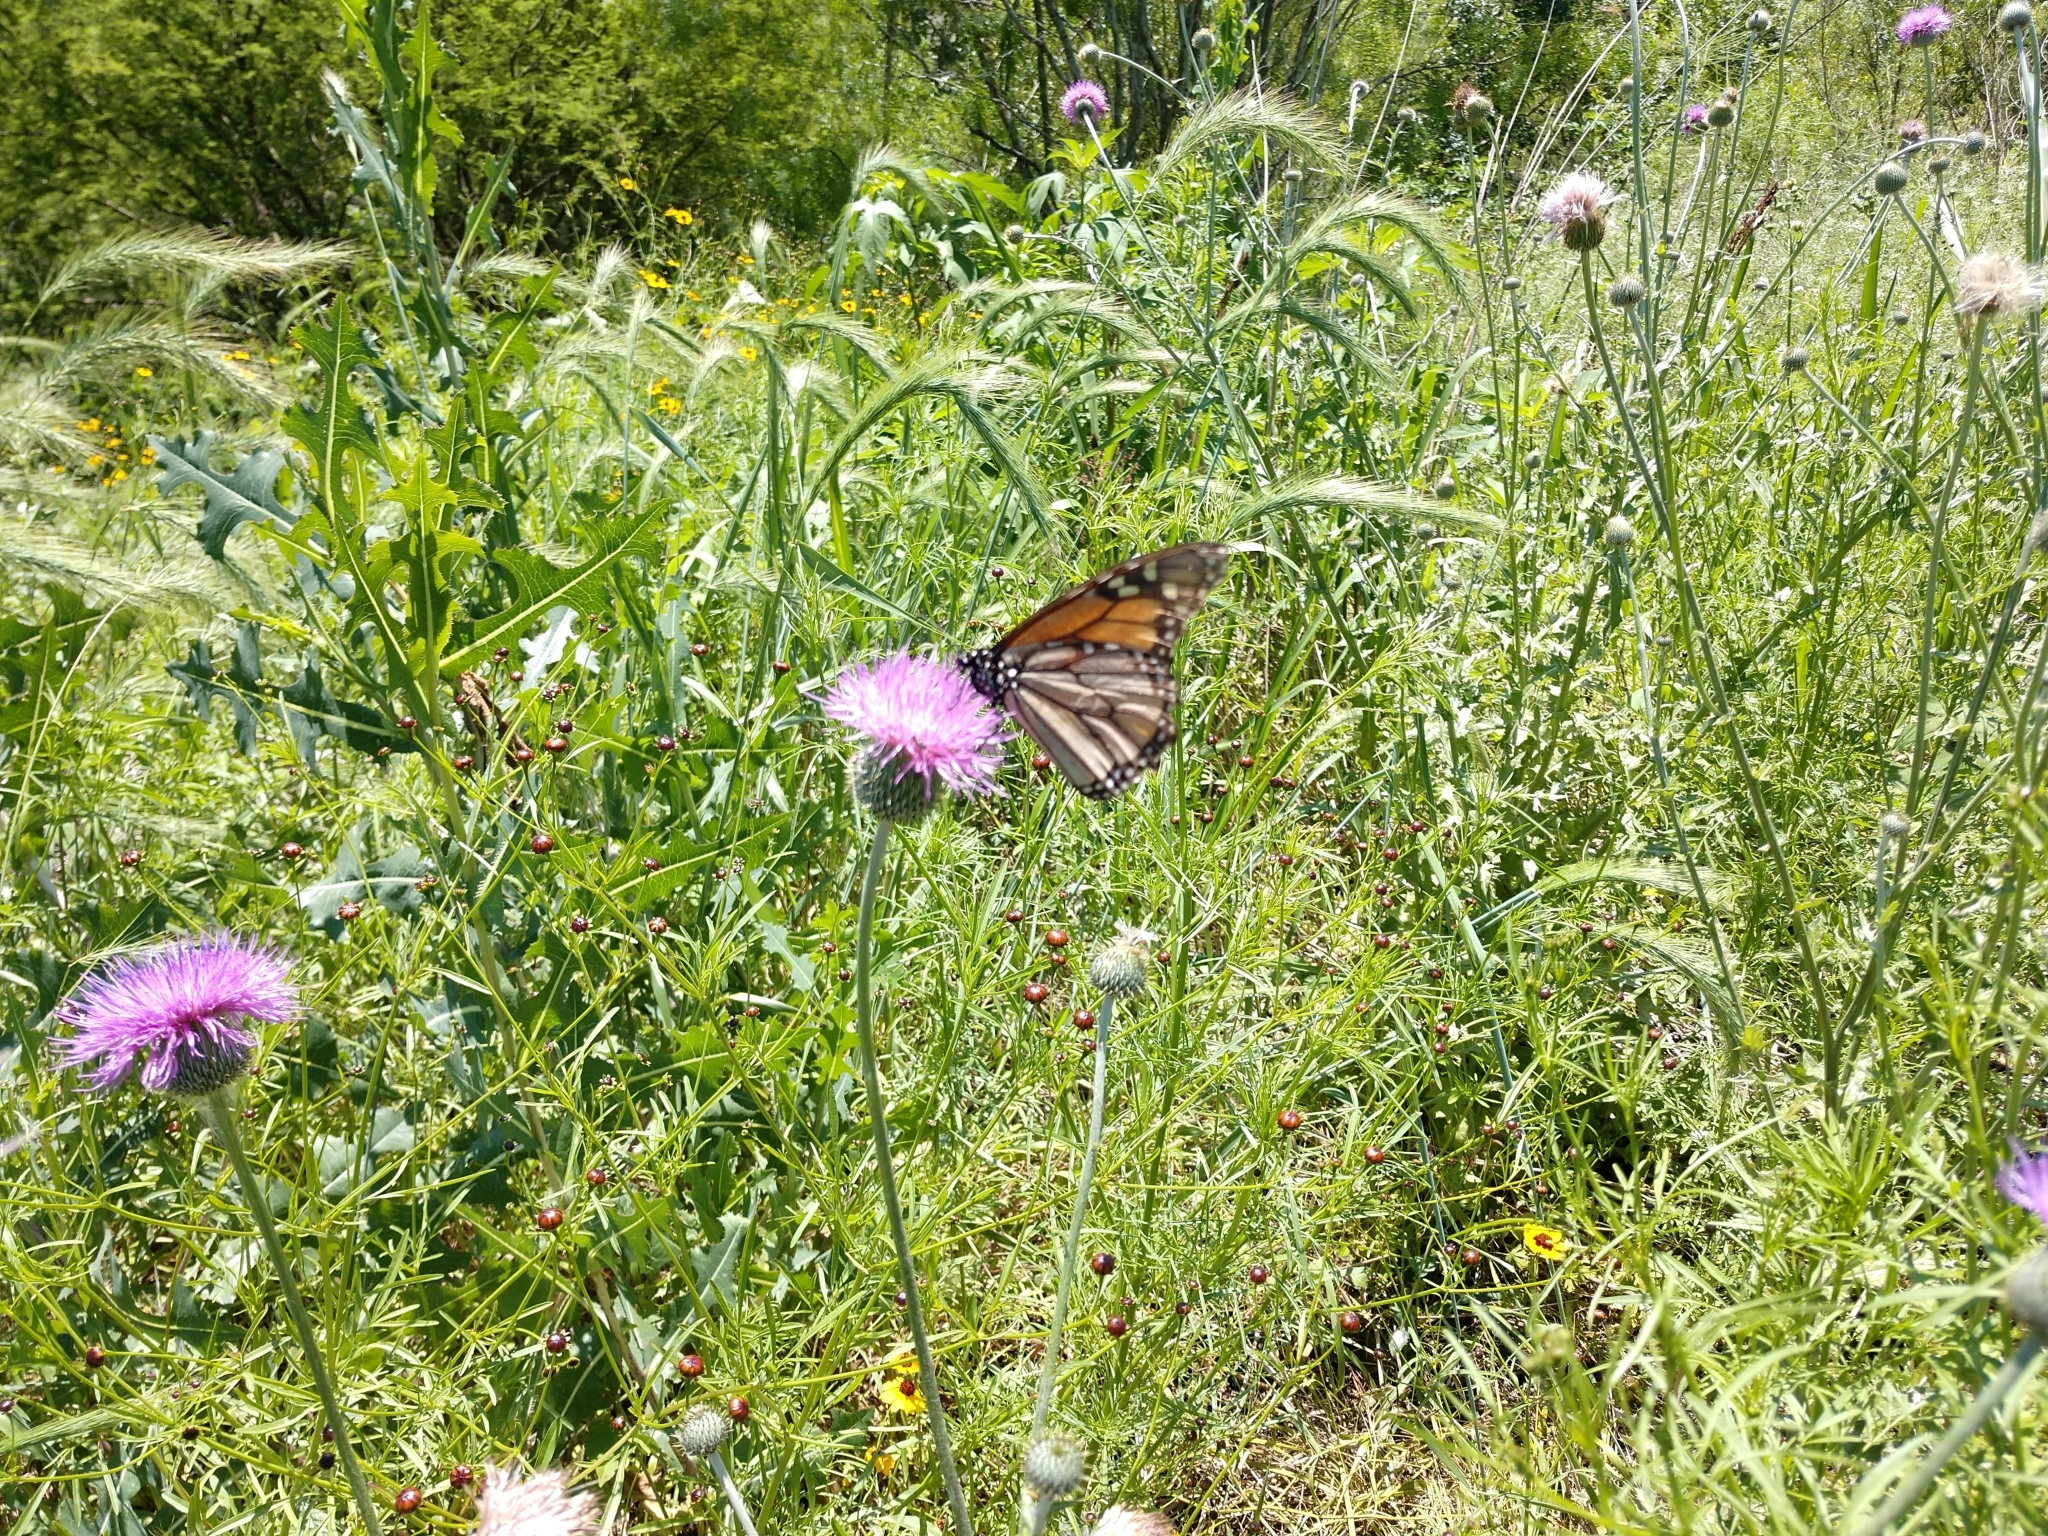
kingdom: Animalia
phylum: Arthropoda
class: Insecta
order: Lepidoptera
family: Nymphalidae
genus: Danaus
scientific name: Danaus plexippus
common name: Monarch
